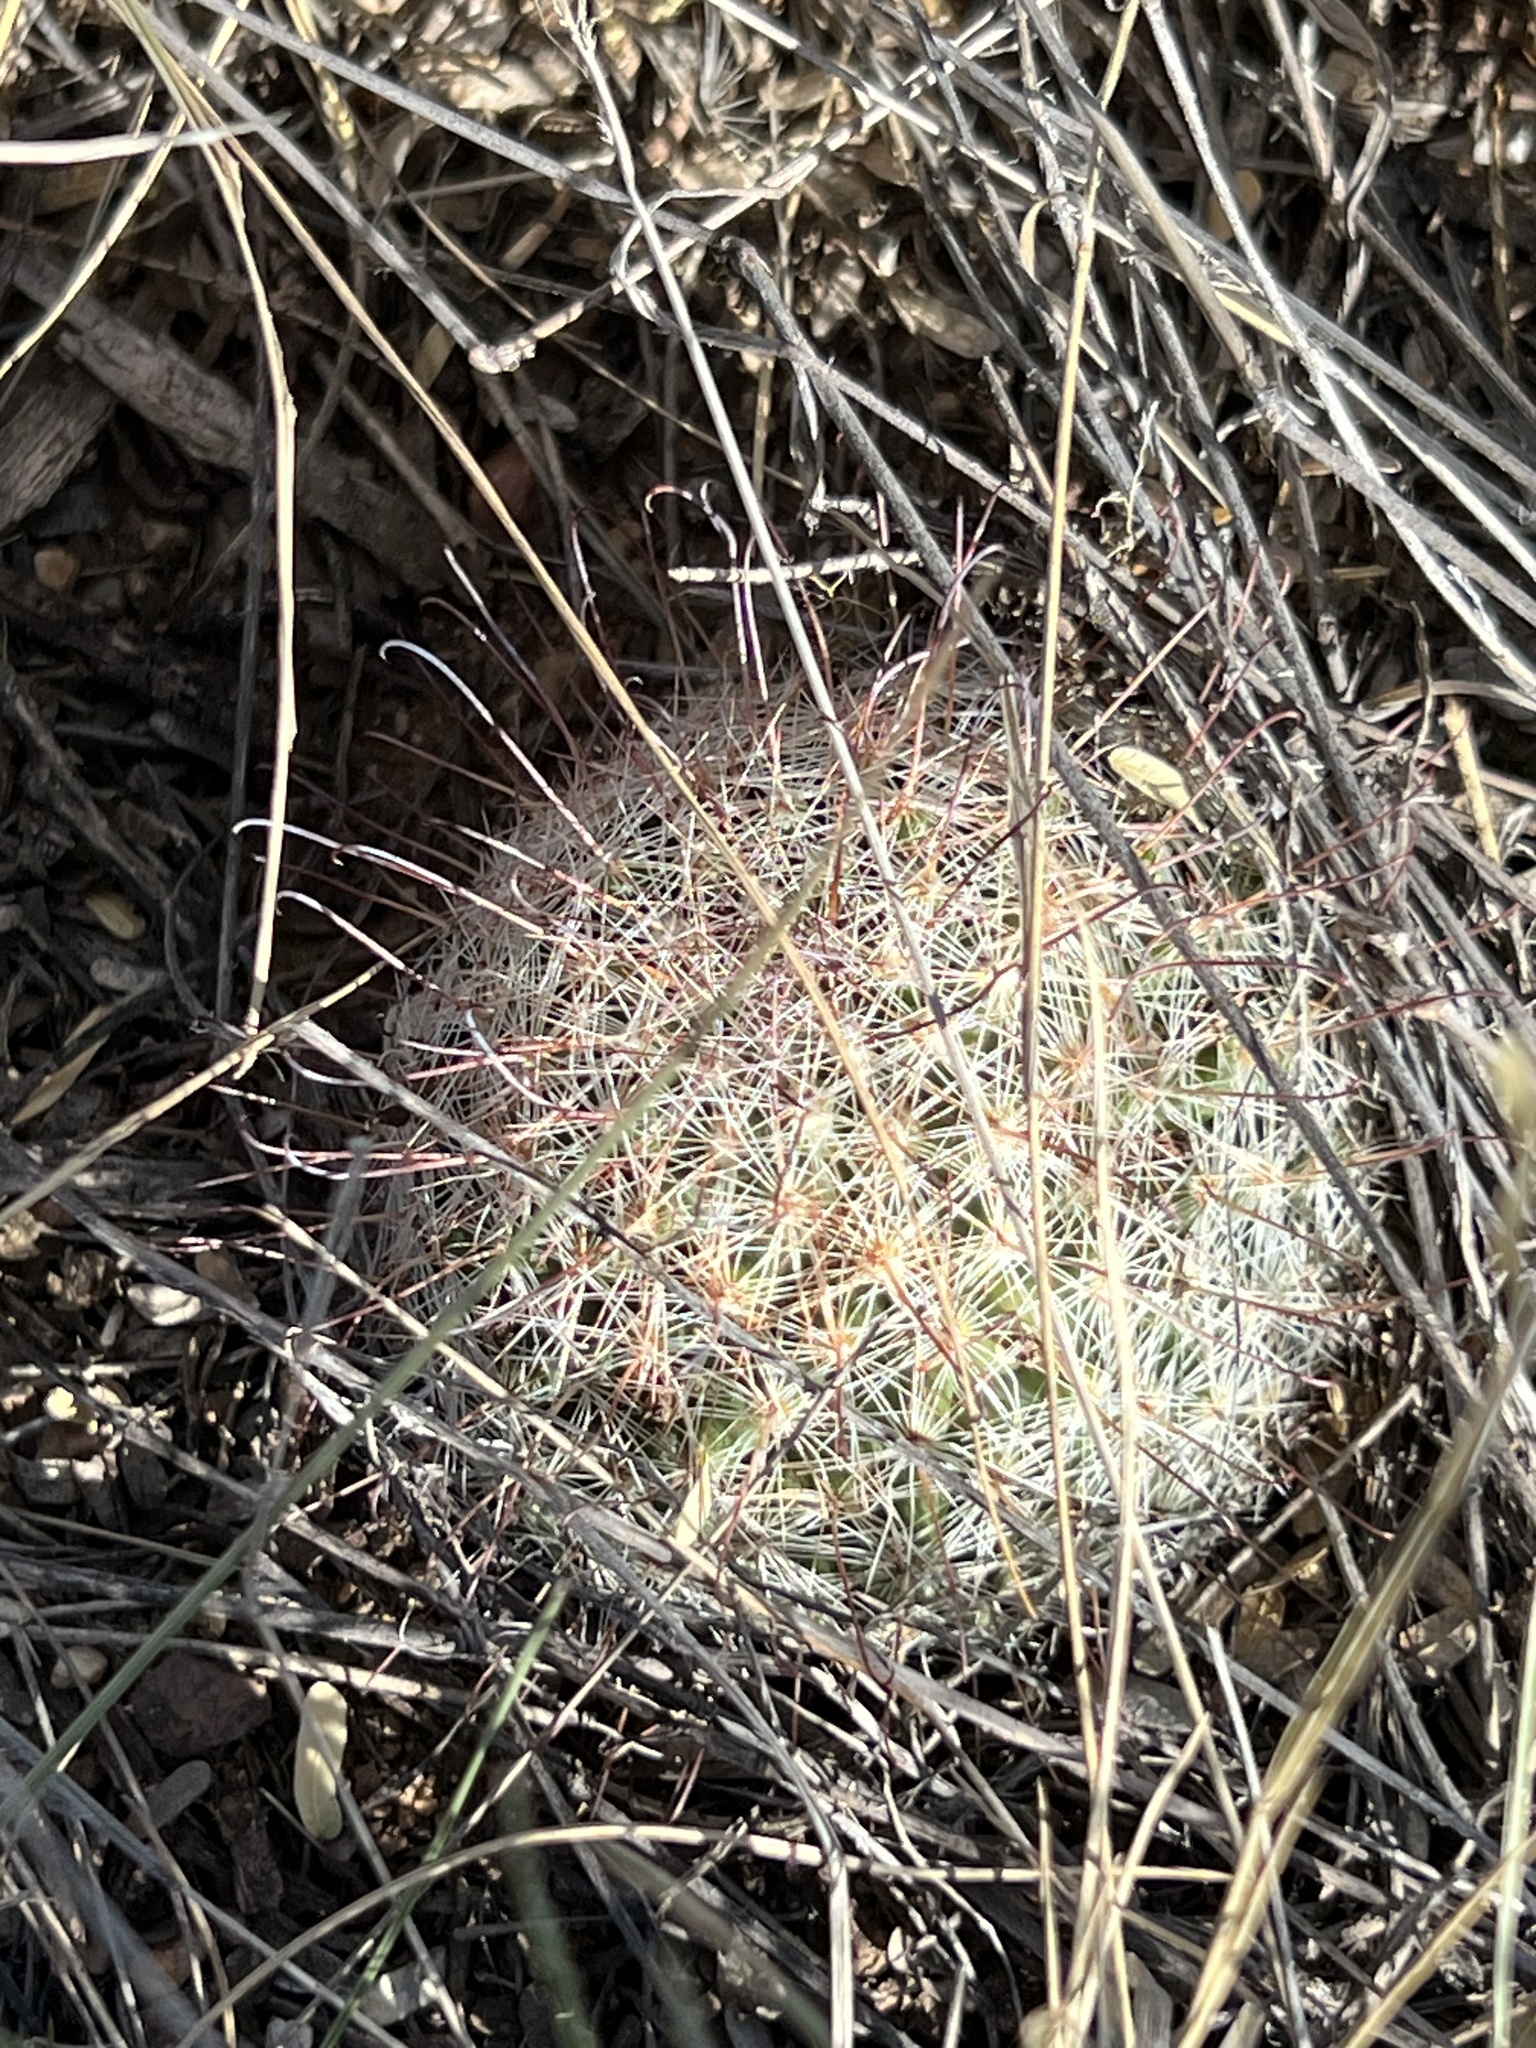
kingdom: Plantae
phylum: Tracheophyta
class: Magnoliopsida
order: Caryophyllales
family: Cactaceae
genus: Cochemiea
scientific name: Cochemiea grahamii
